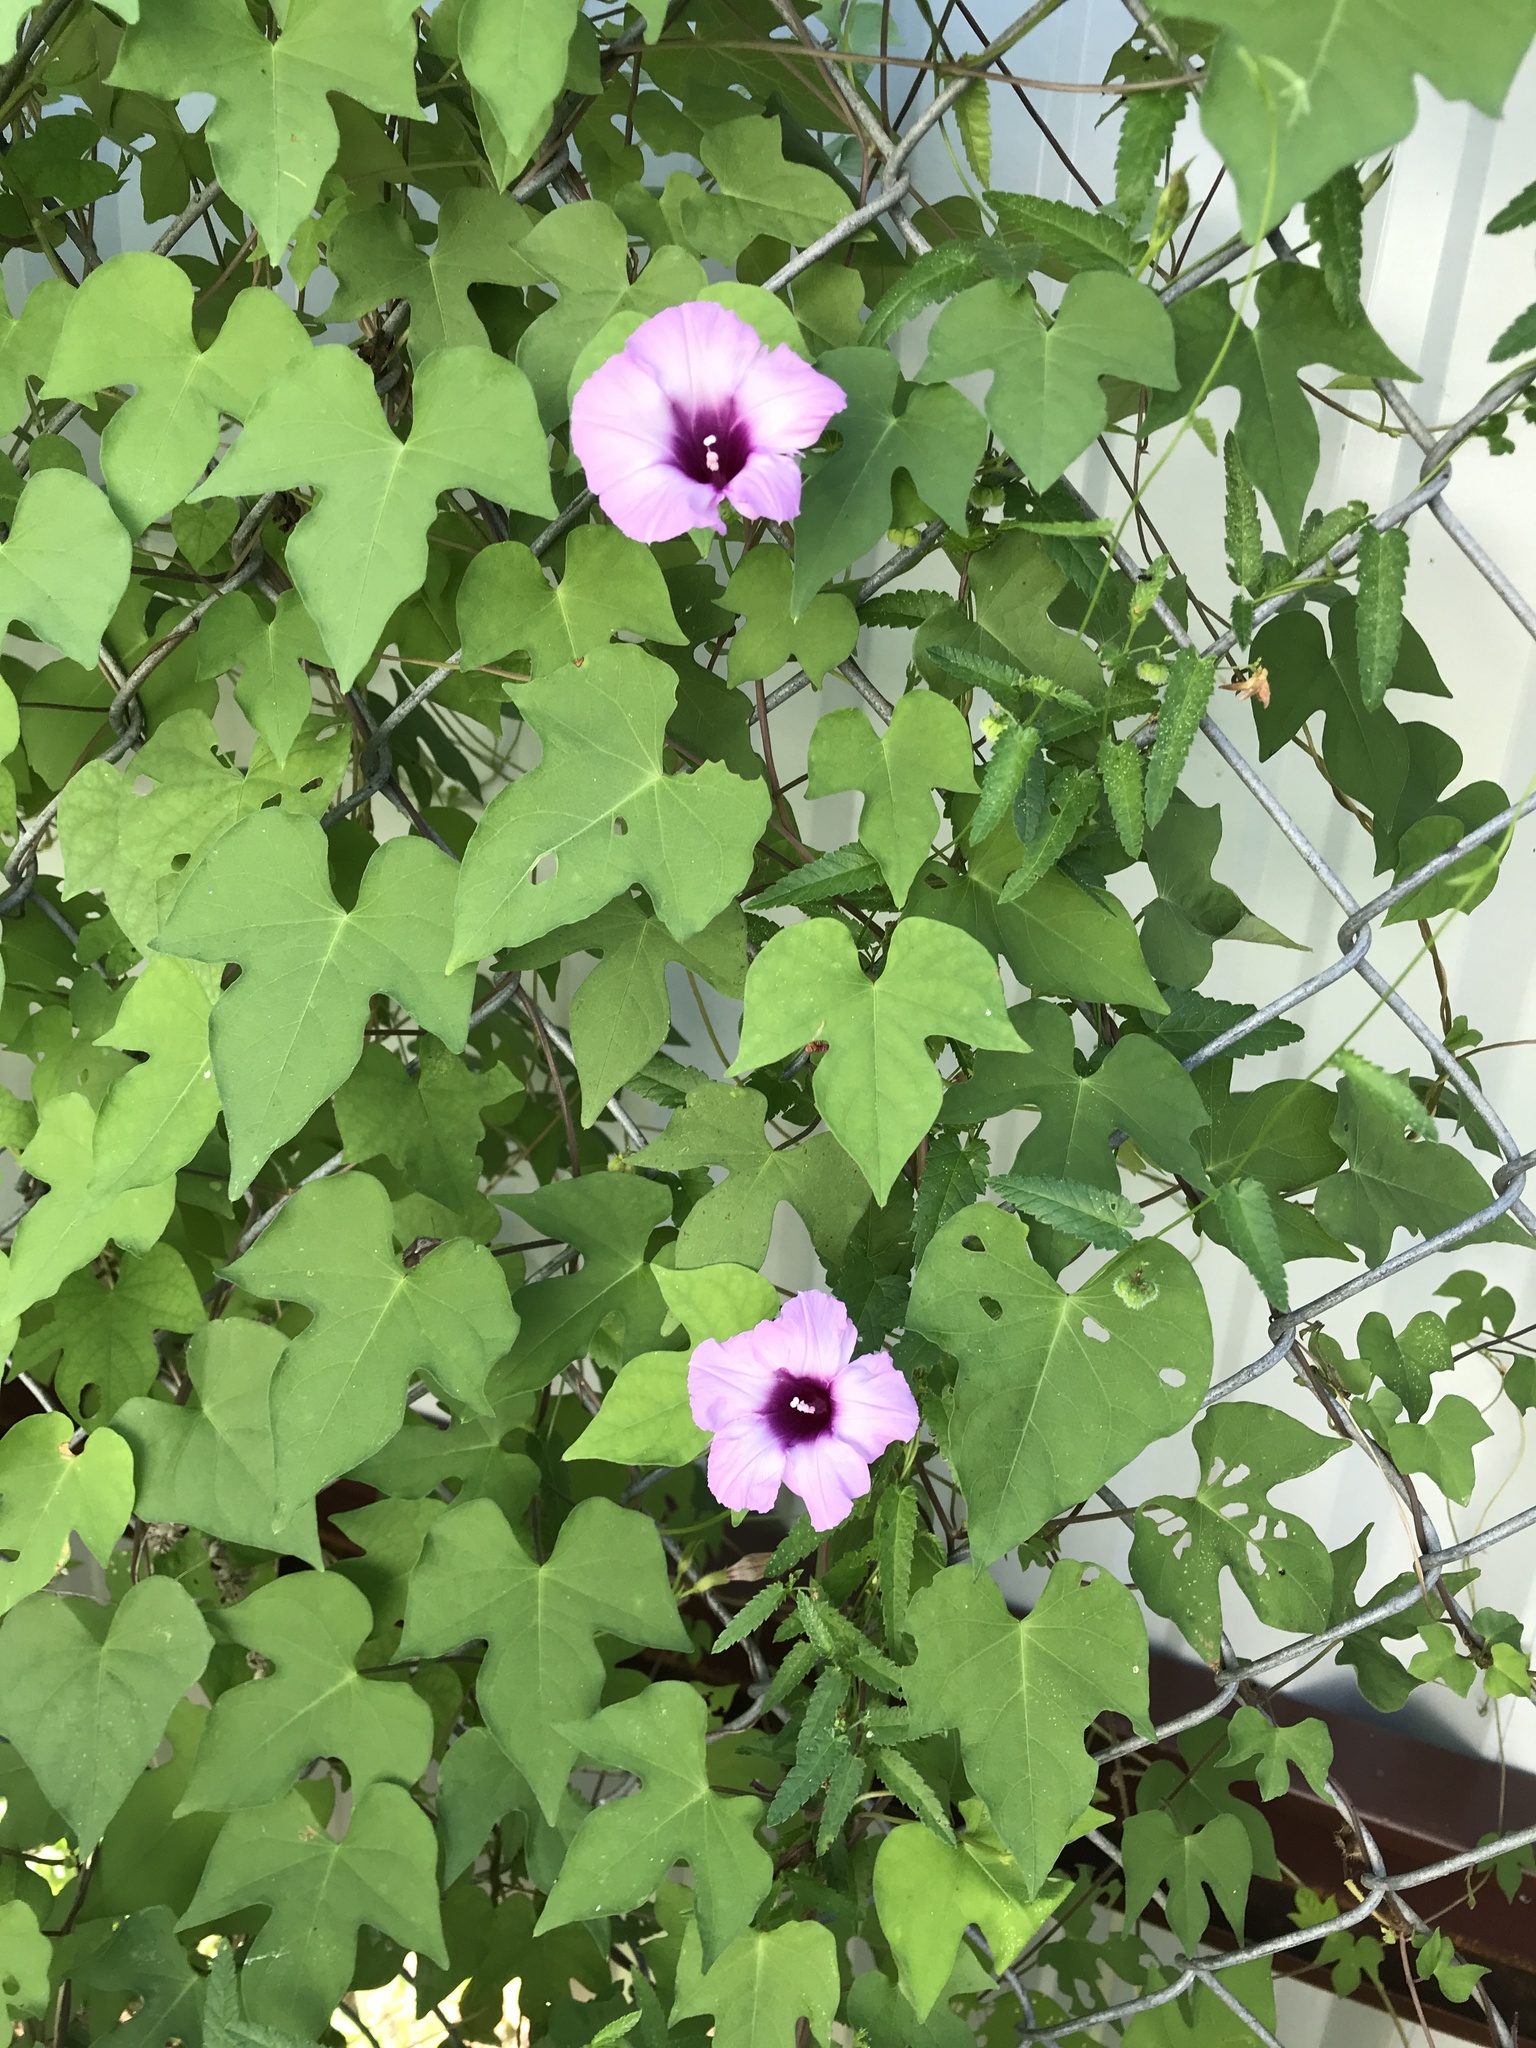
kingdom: Plantae
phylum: Tracheophyta
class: Magnoliopsida
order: Solanales
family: Convolvulaceae
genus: Ipomoea
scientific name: Ipomoea cordatotriloba
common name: Cotton morning glory
